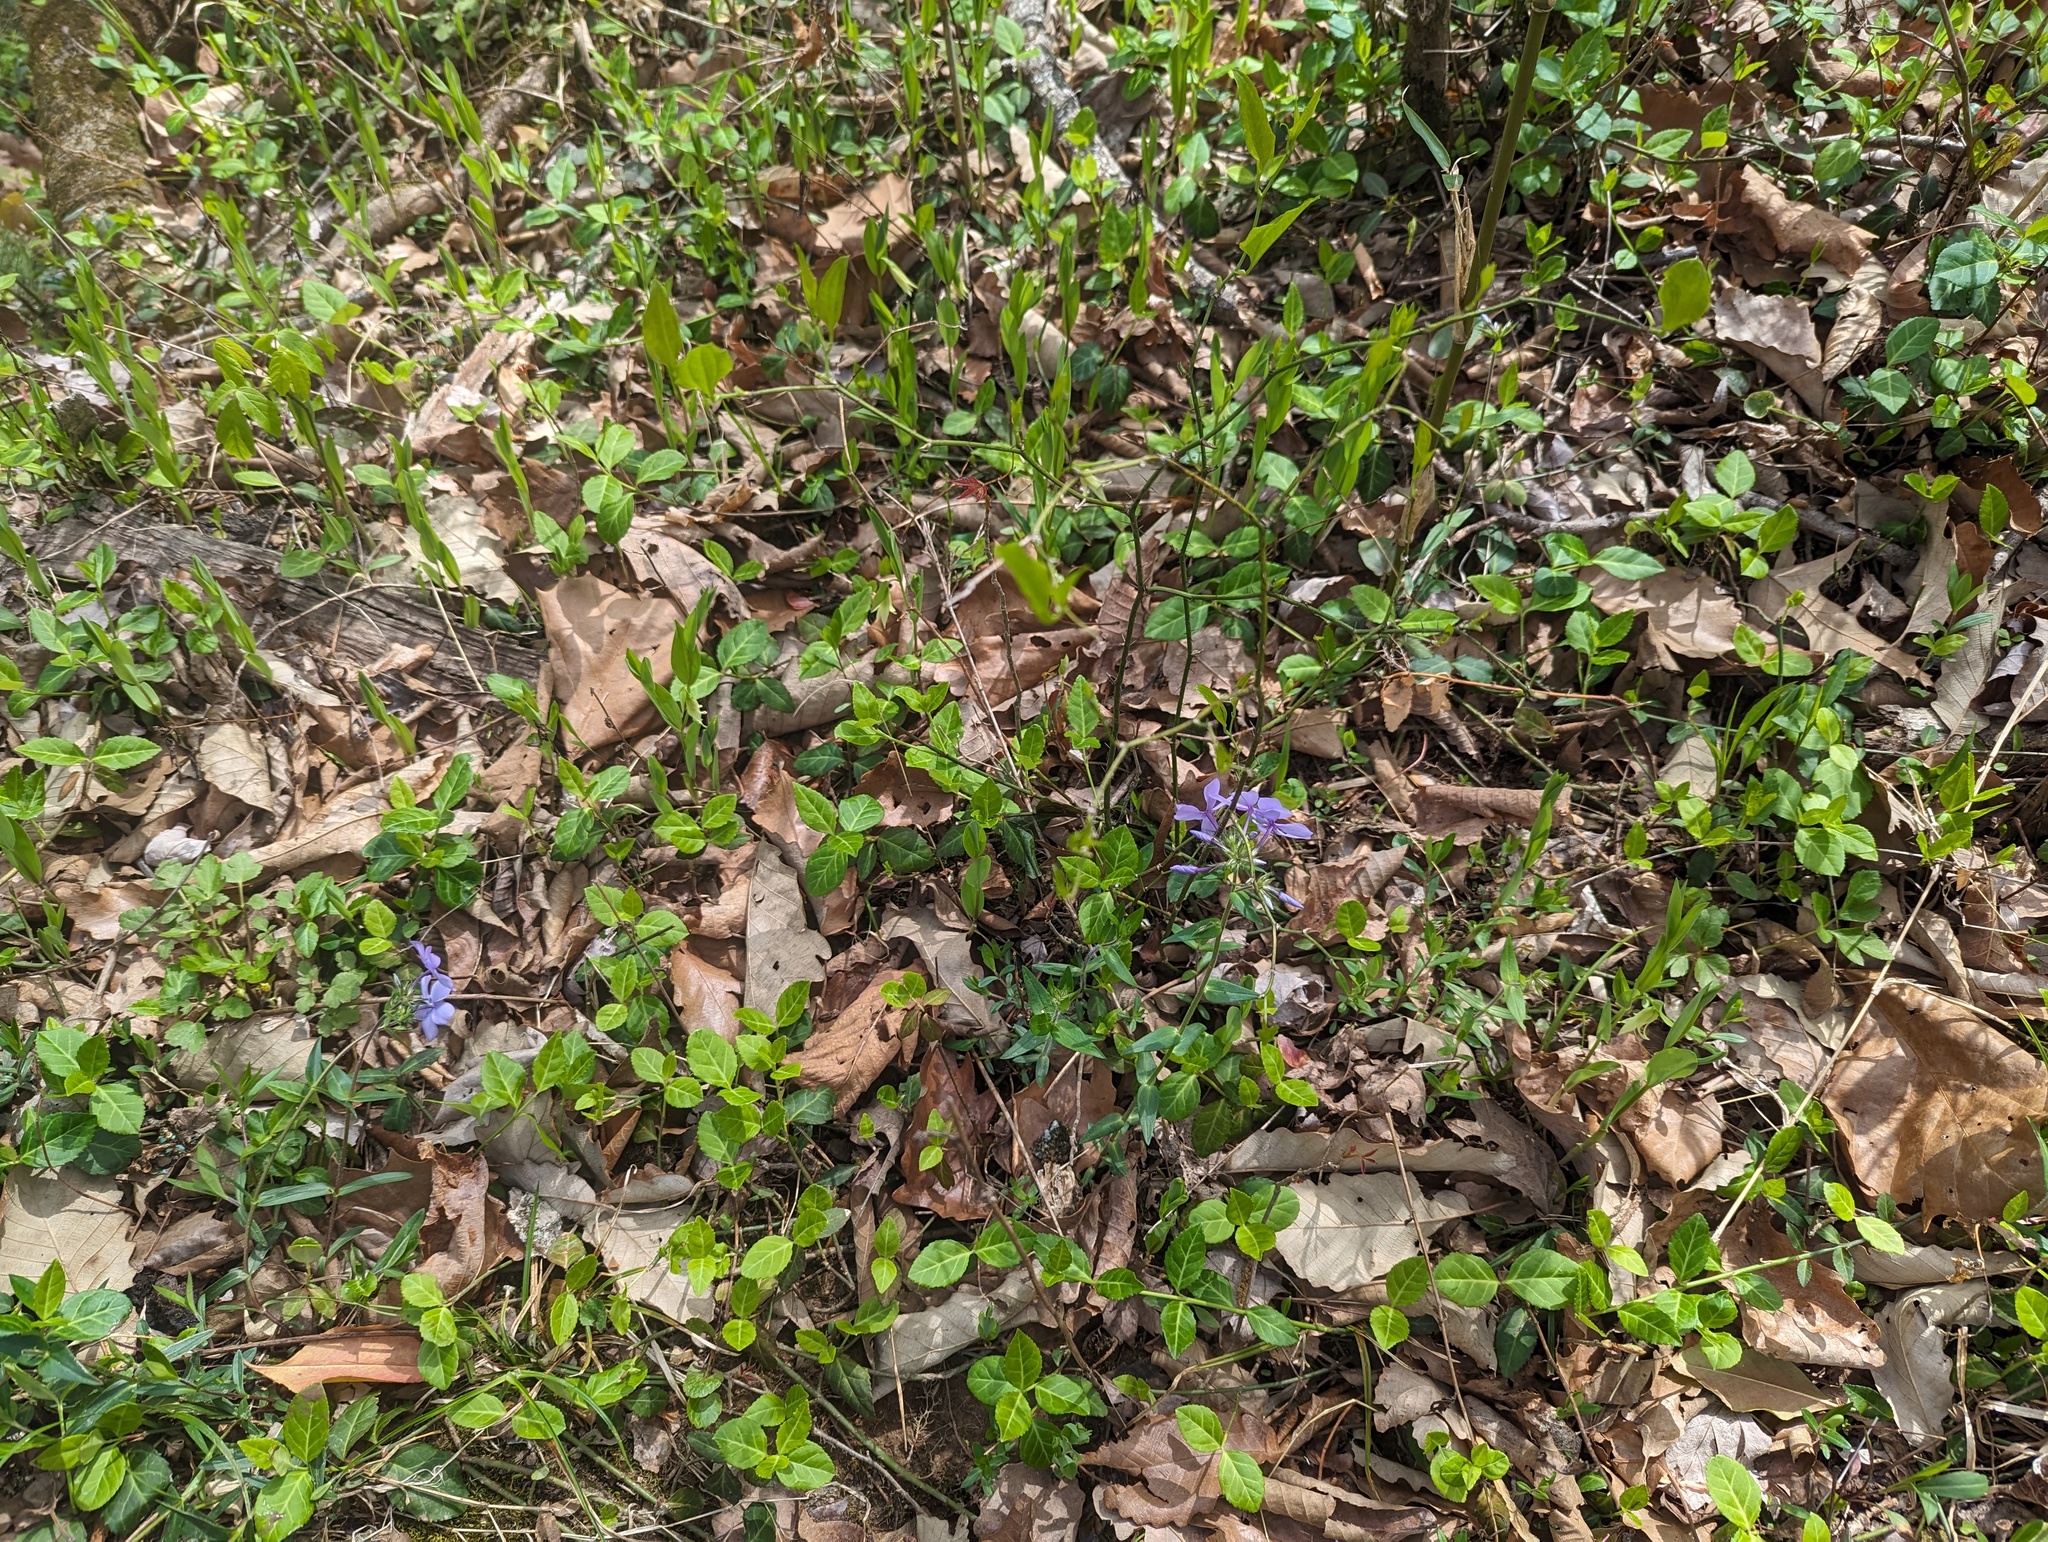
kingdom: Plantae
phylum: Tracheophyta
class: Liliopsida
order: Liliales
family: Colchicaceae
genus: Uvularia
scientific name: Uvularia floridana
